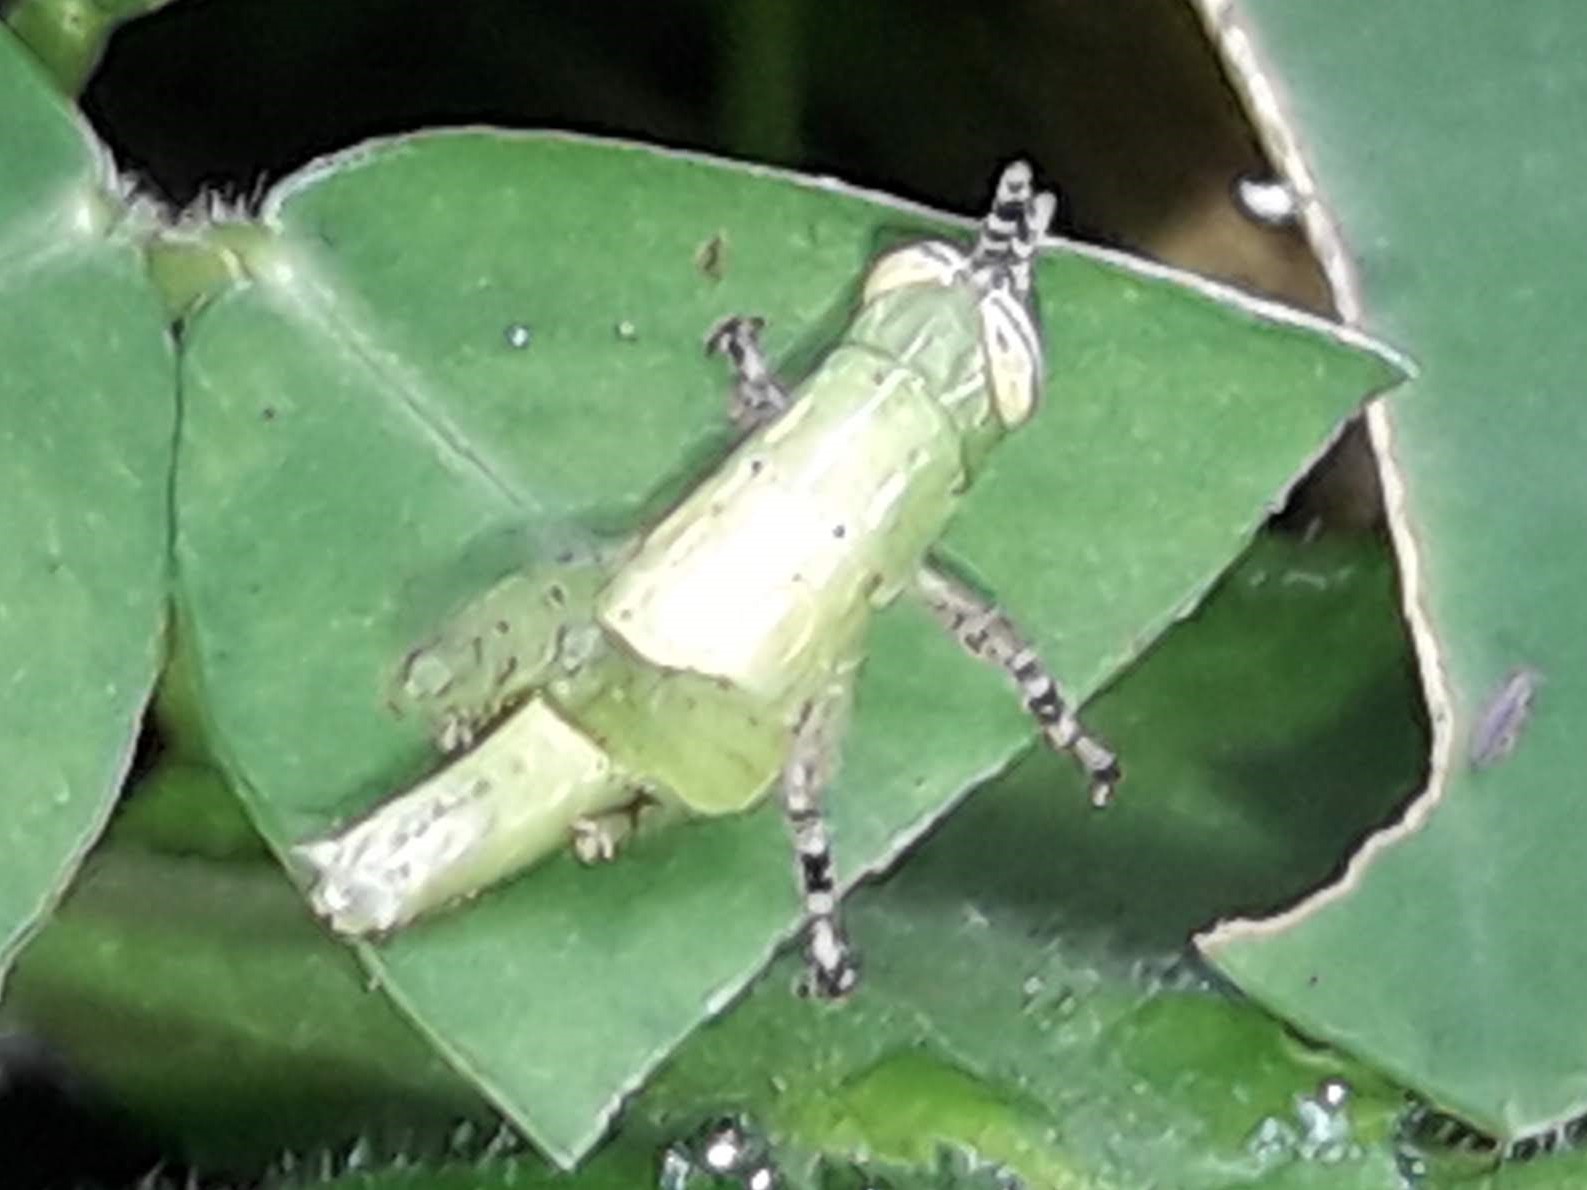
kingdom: Animalia
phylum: Arthropoda
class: Insecta
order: Orthoptera
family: Acrididae
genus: Abracris
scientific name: Abracris flavolineata
